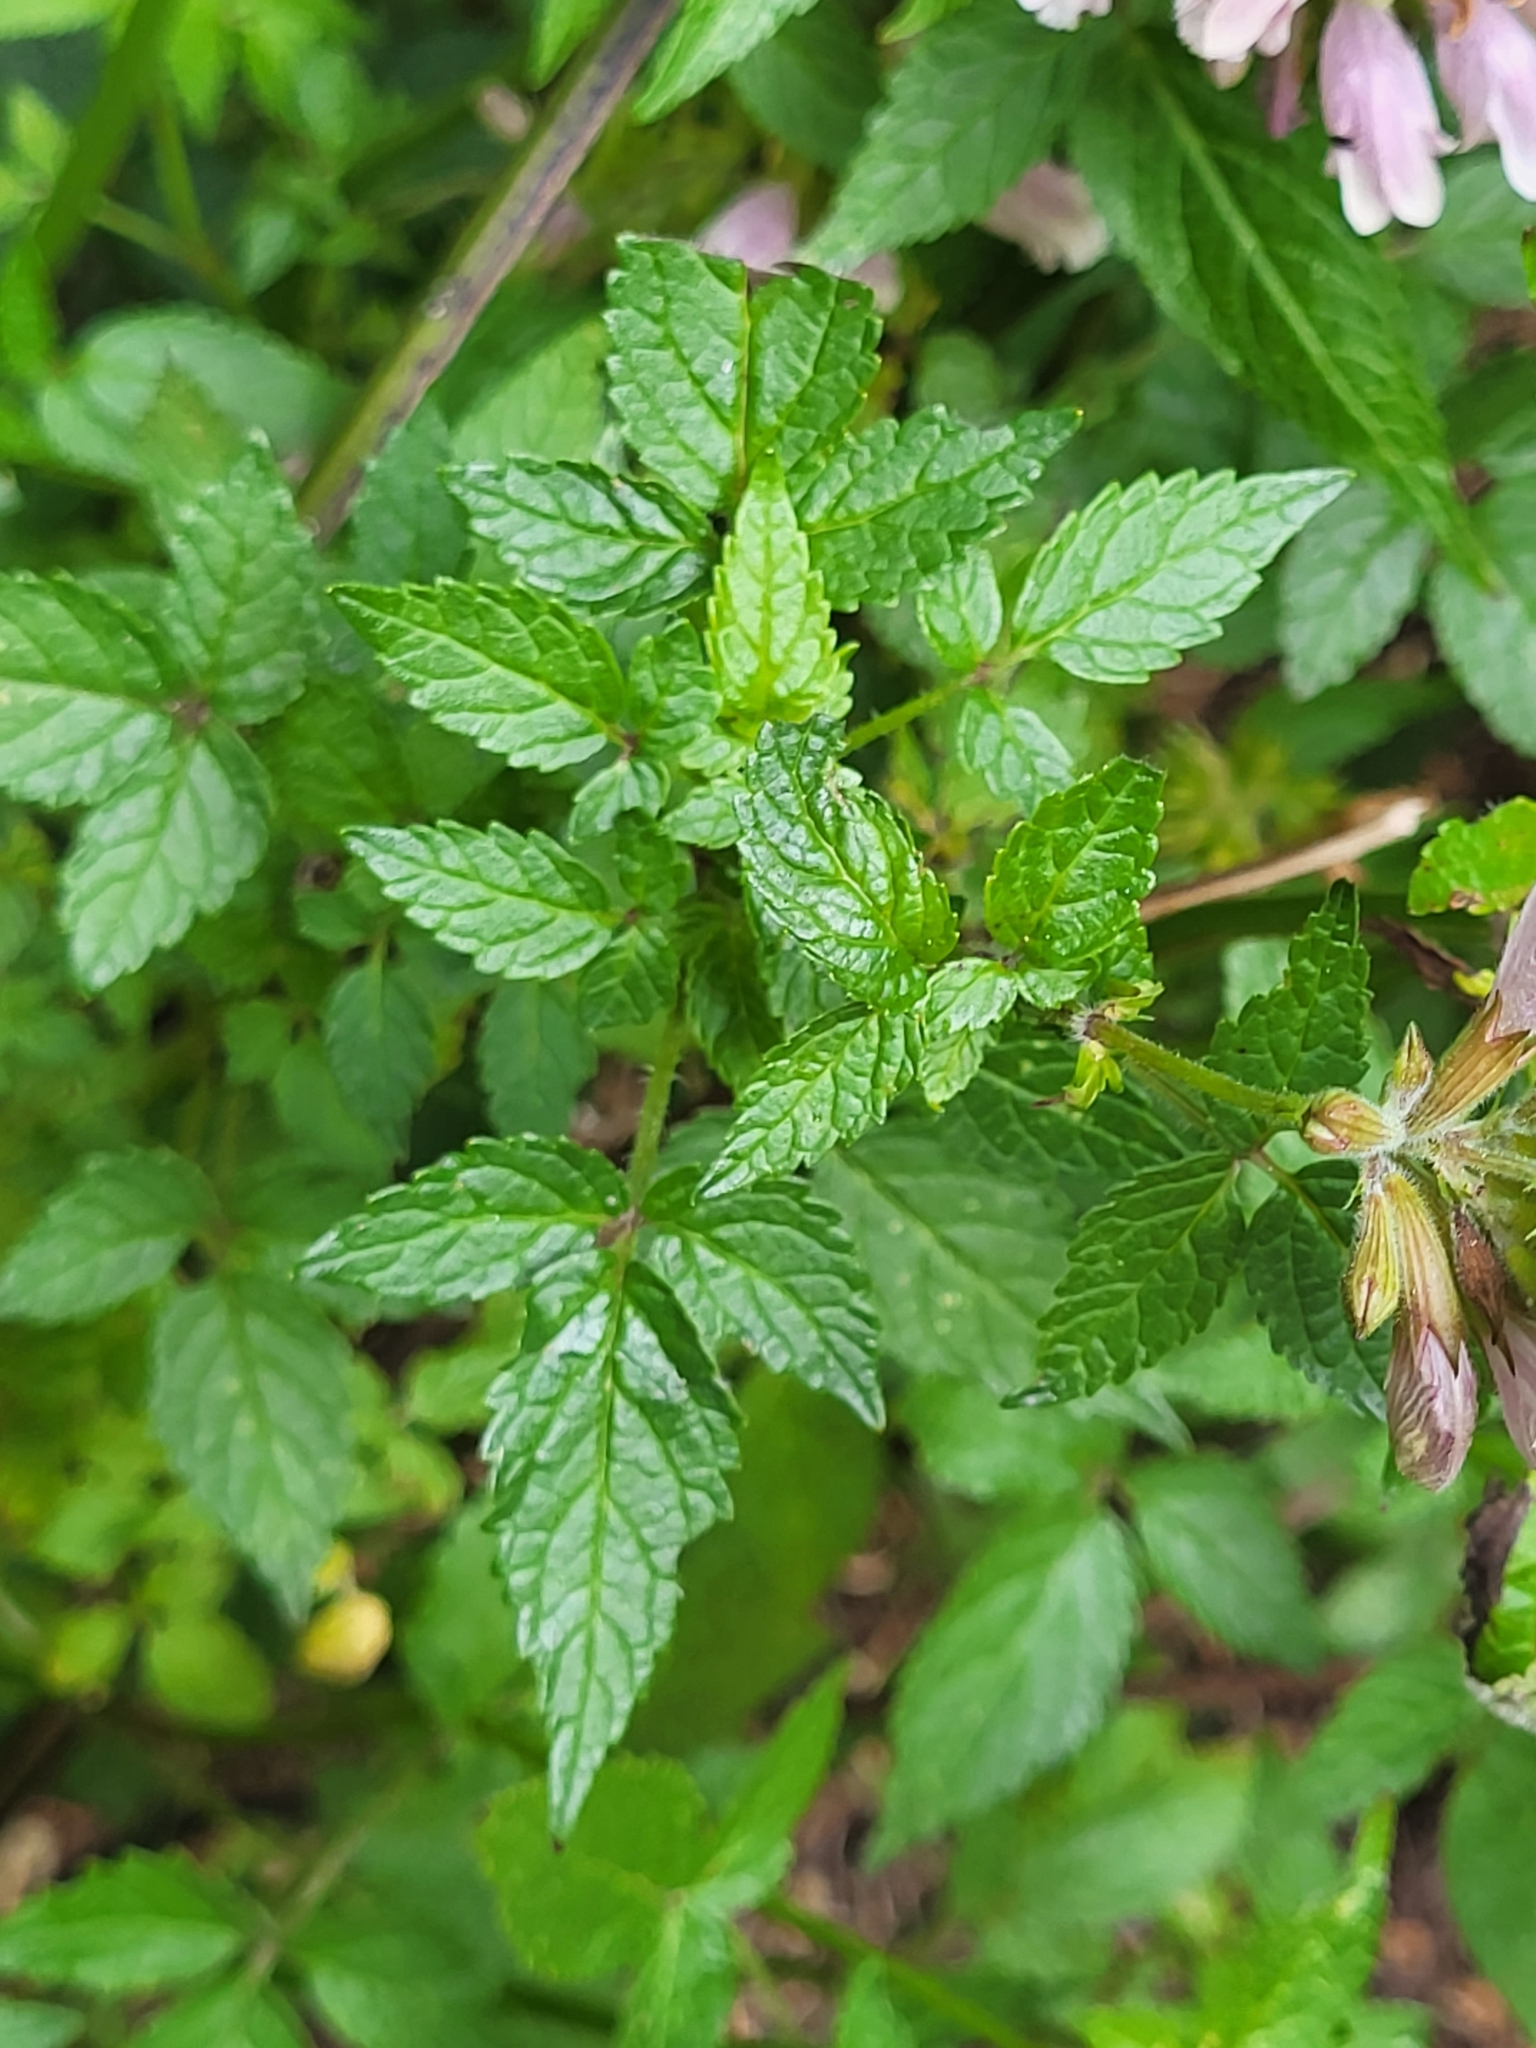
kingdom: Plantae
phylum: Tracheophyta
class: Magnoliopsida
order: Lamiales
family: Lamiaceae
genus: Cedronella
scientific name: Cedronella canariensis
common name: Canary islands balm
